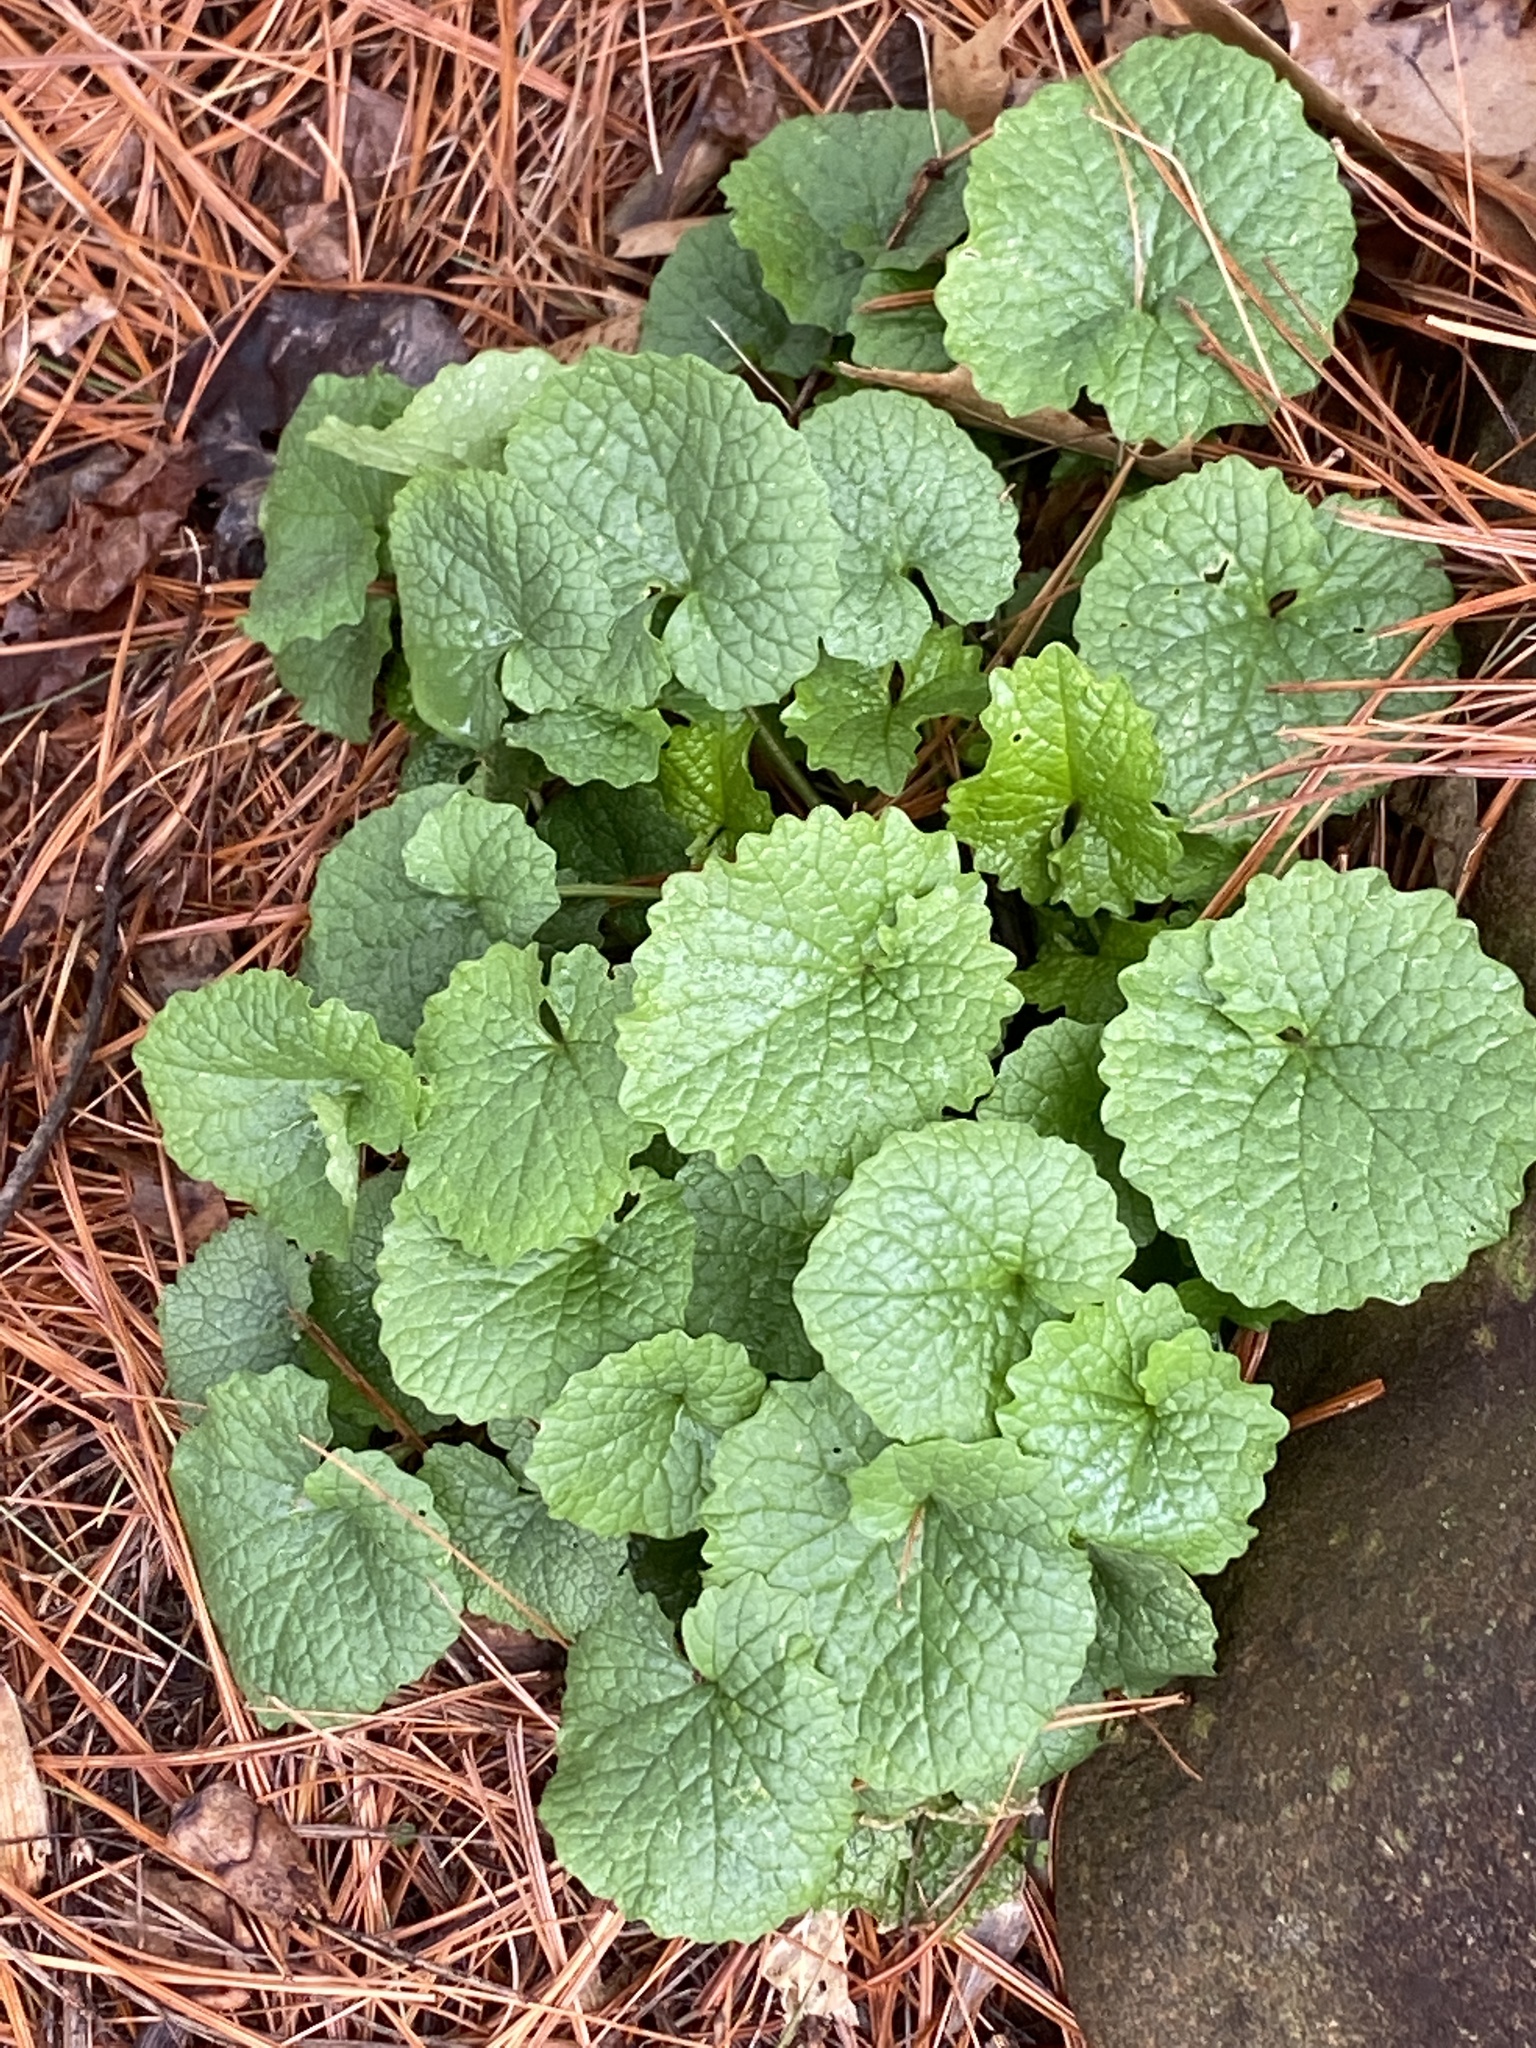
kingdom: Plantae
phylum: Tracheophyta
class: Magnoliopsida
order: Brassicales
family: Brassicaceae
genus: Alliaria
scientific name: Alliaria petiolata
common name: Garlic mustard
